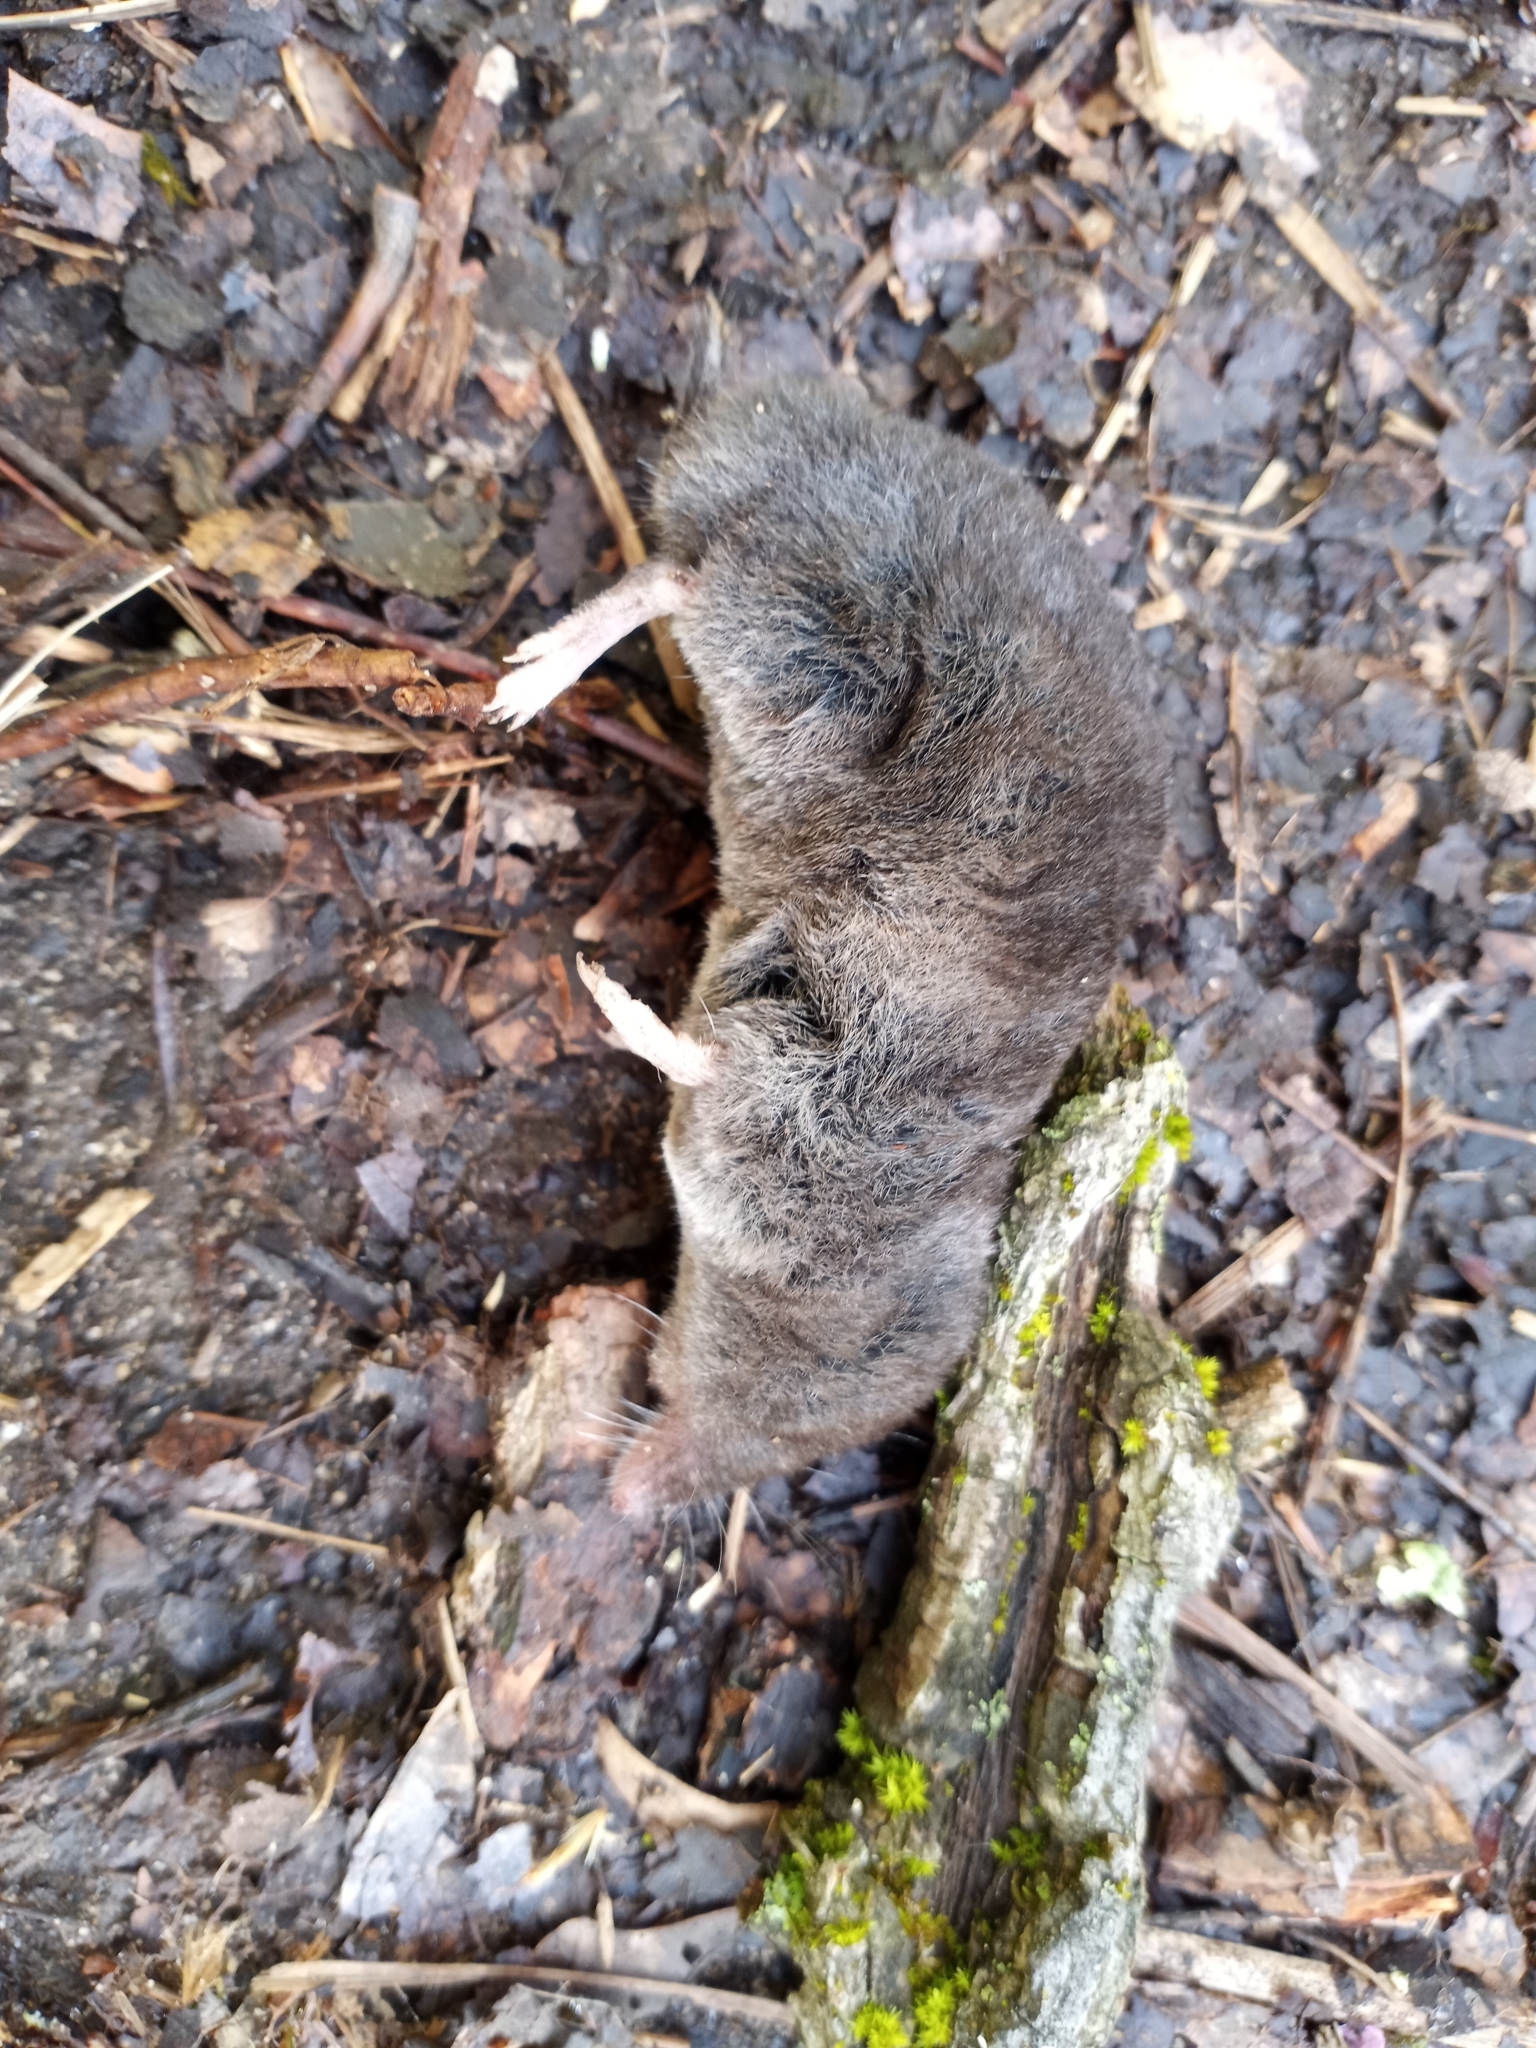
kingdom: Animalia
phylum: Chordata
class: Mammalia
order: Soricomorpha
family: Soricidae
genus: Blarina
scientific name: Blarina brevicauda
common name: Northern short-tailed shrew
